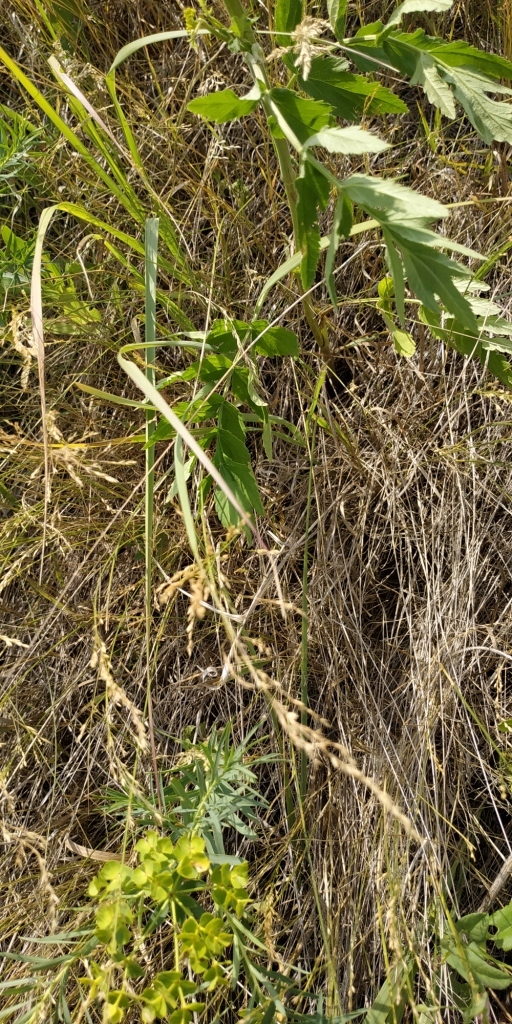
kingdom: Plantae
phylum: Tracheophyta
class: Magnoliopsida
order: Apiales
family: Apiaceae
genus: Pastinaca
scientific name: Pastinaca sativa
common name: Wild parsnip
